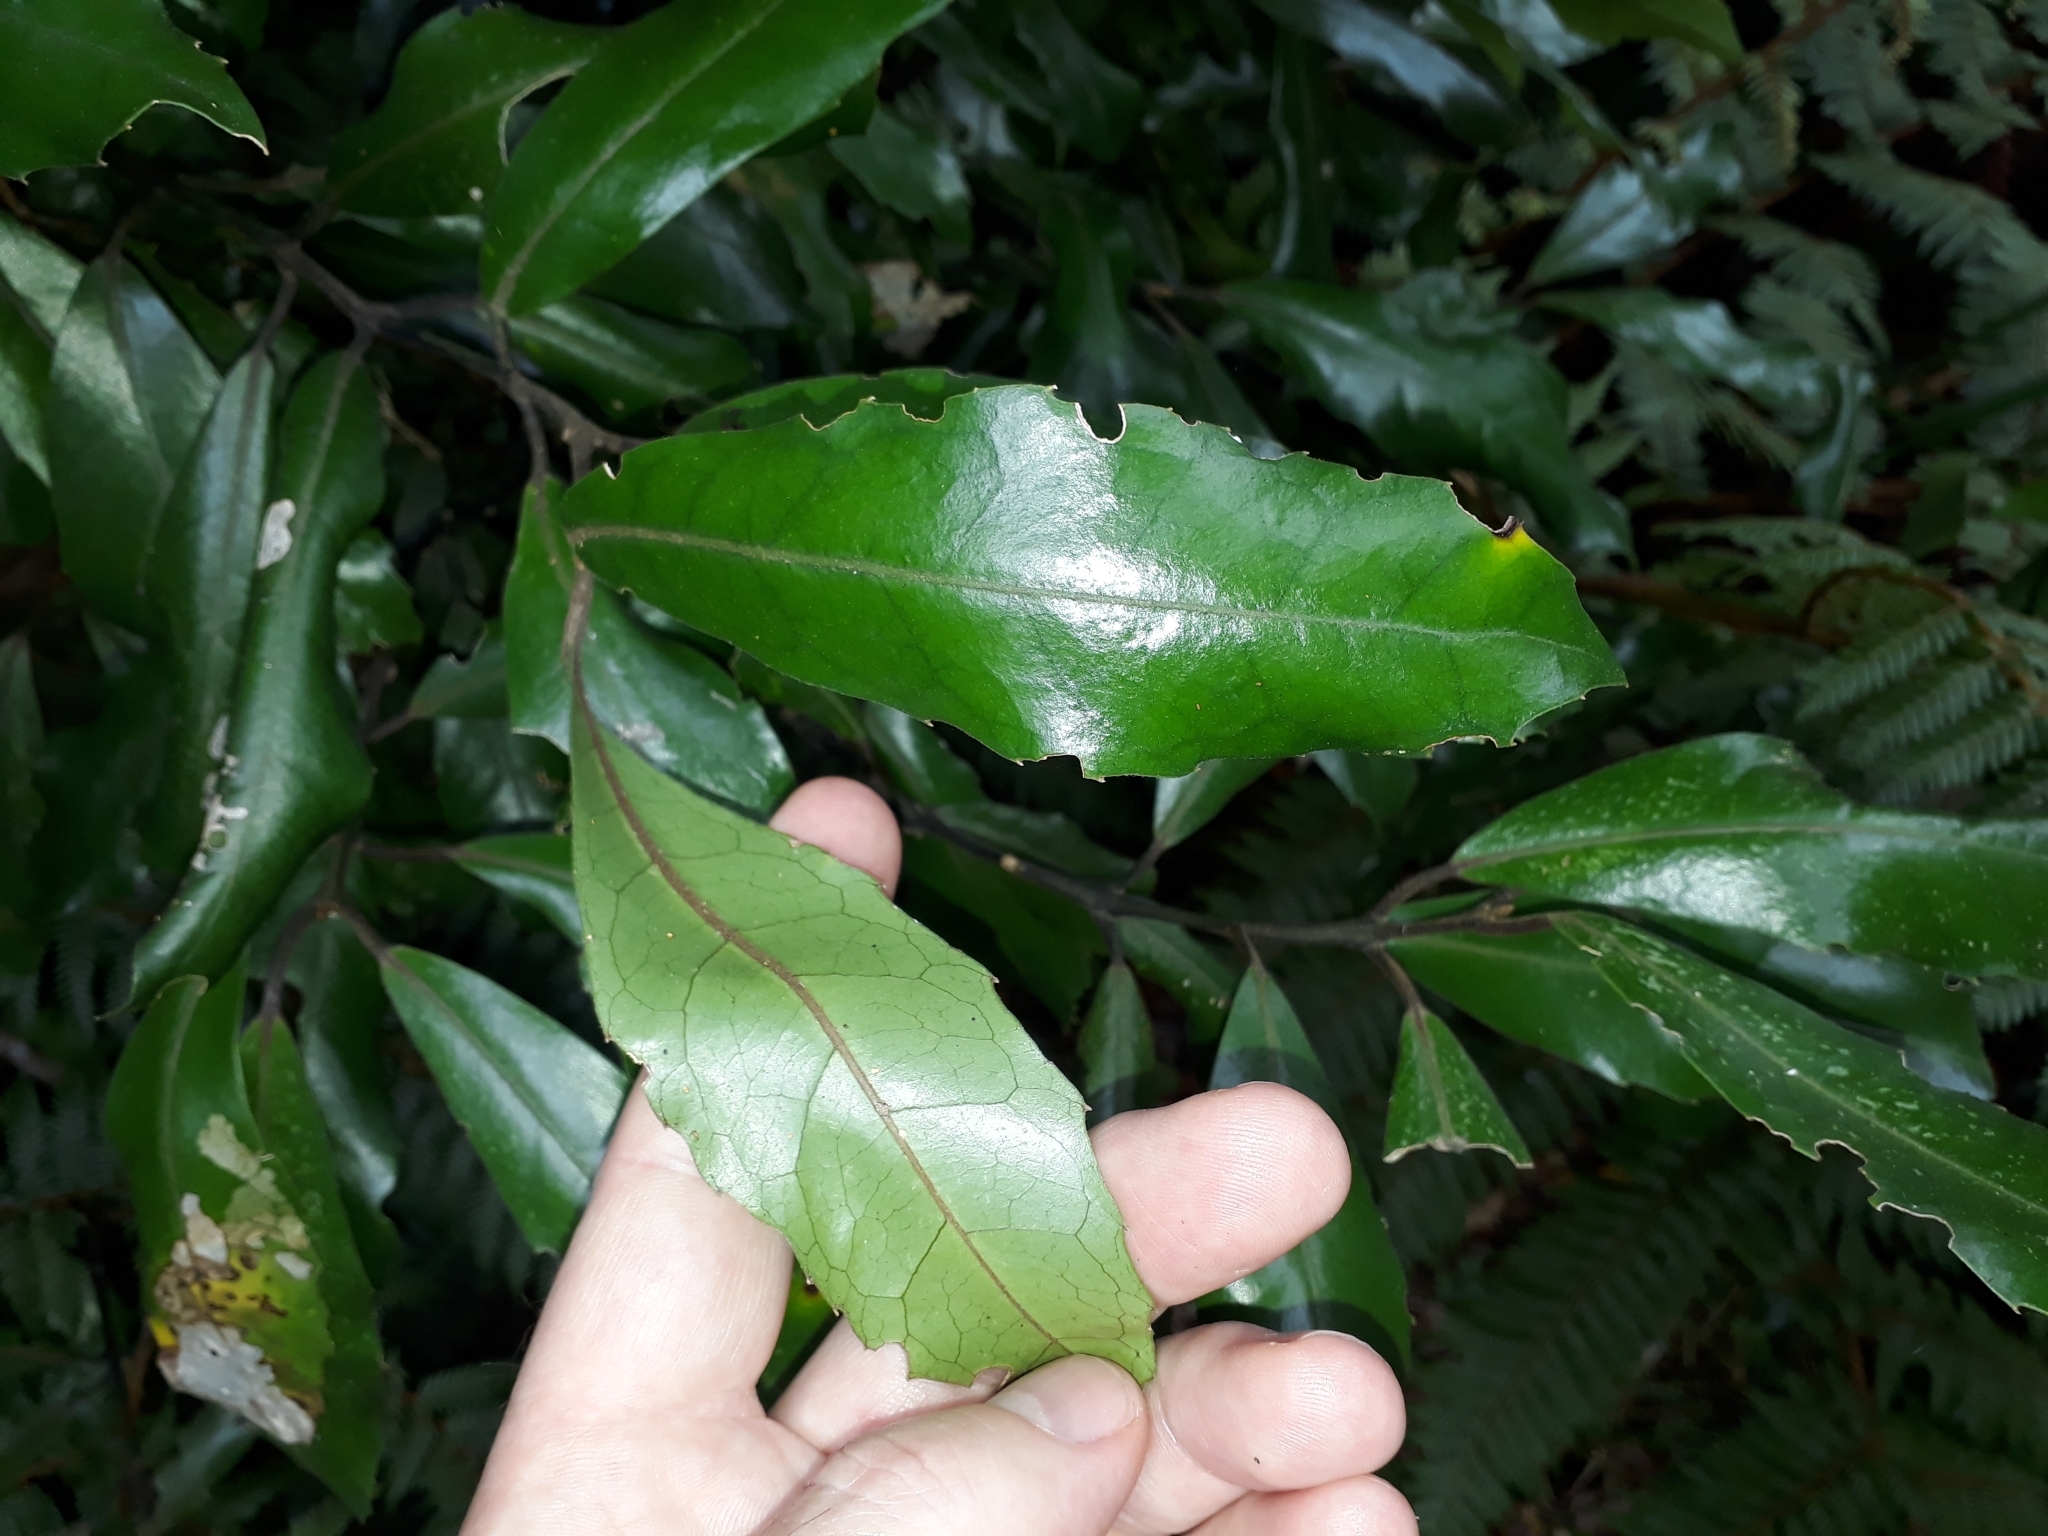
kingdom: Plantae
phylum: Tracheophyta
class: Magnoliopsida
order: Laurales
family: Monimiaceae
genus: Hedycarya
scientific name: Hedycarya arborea
